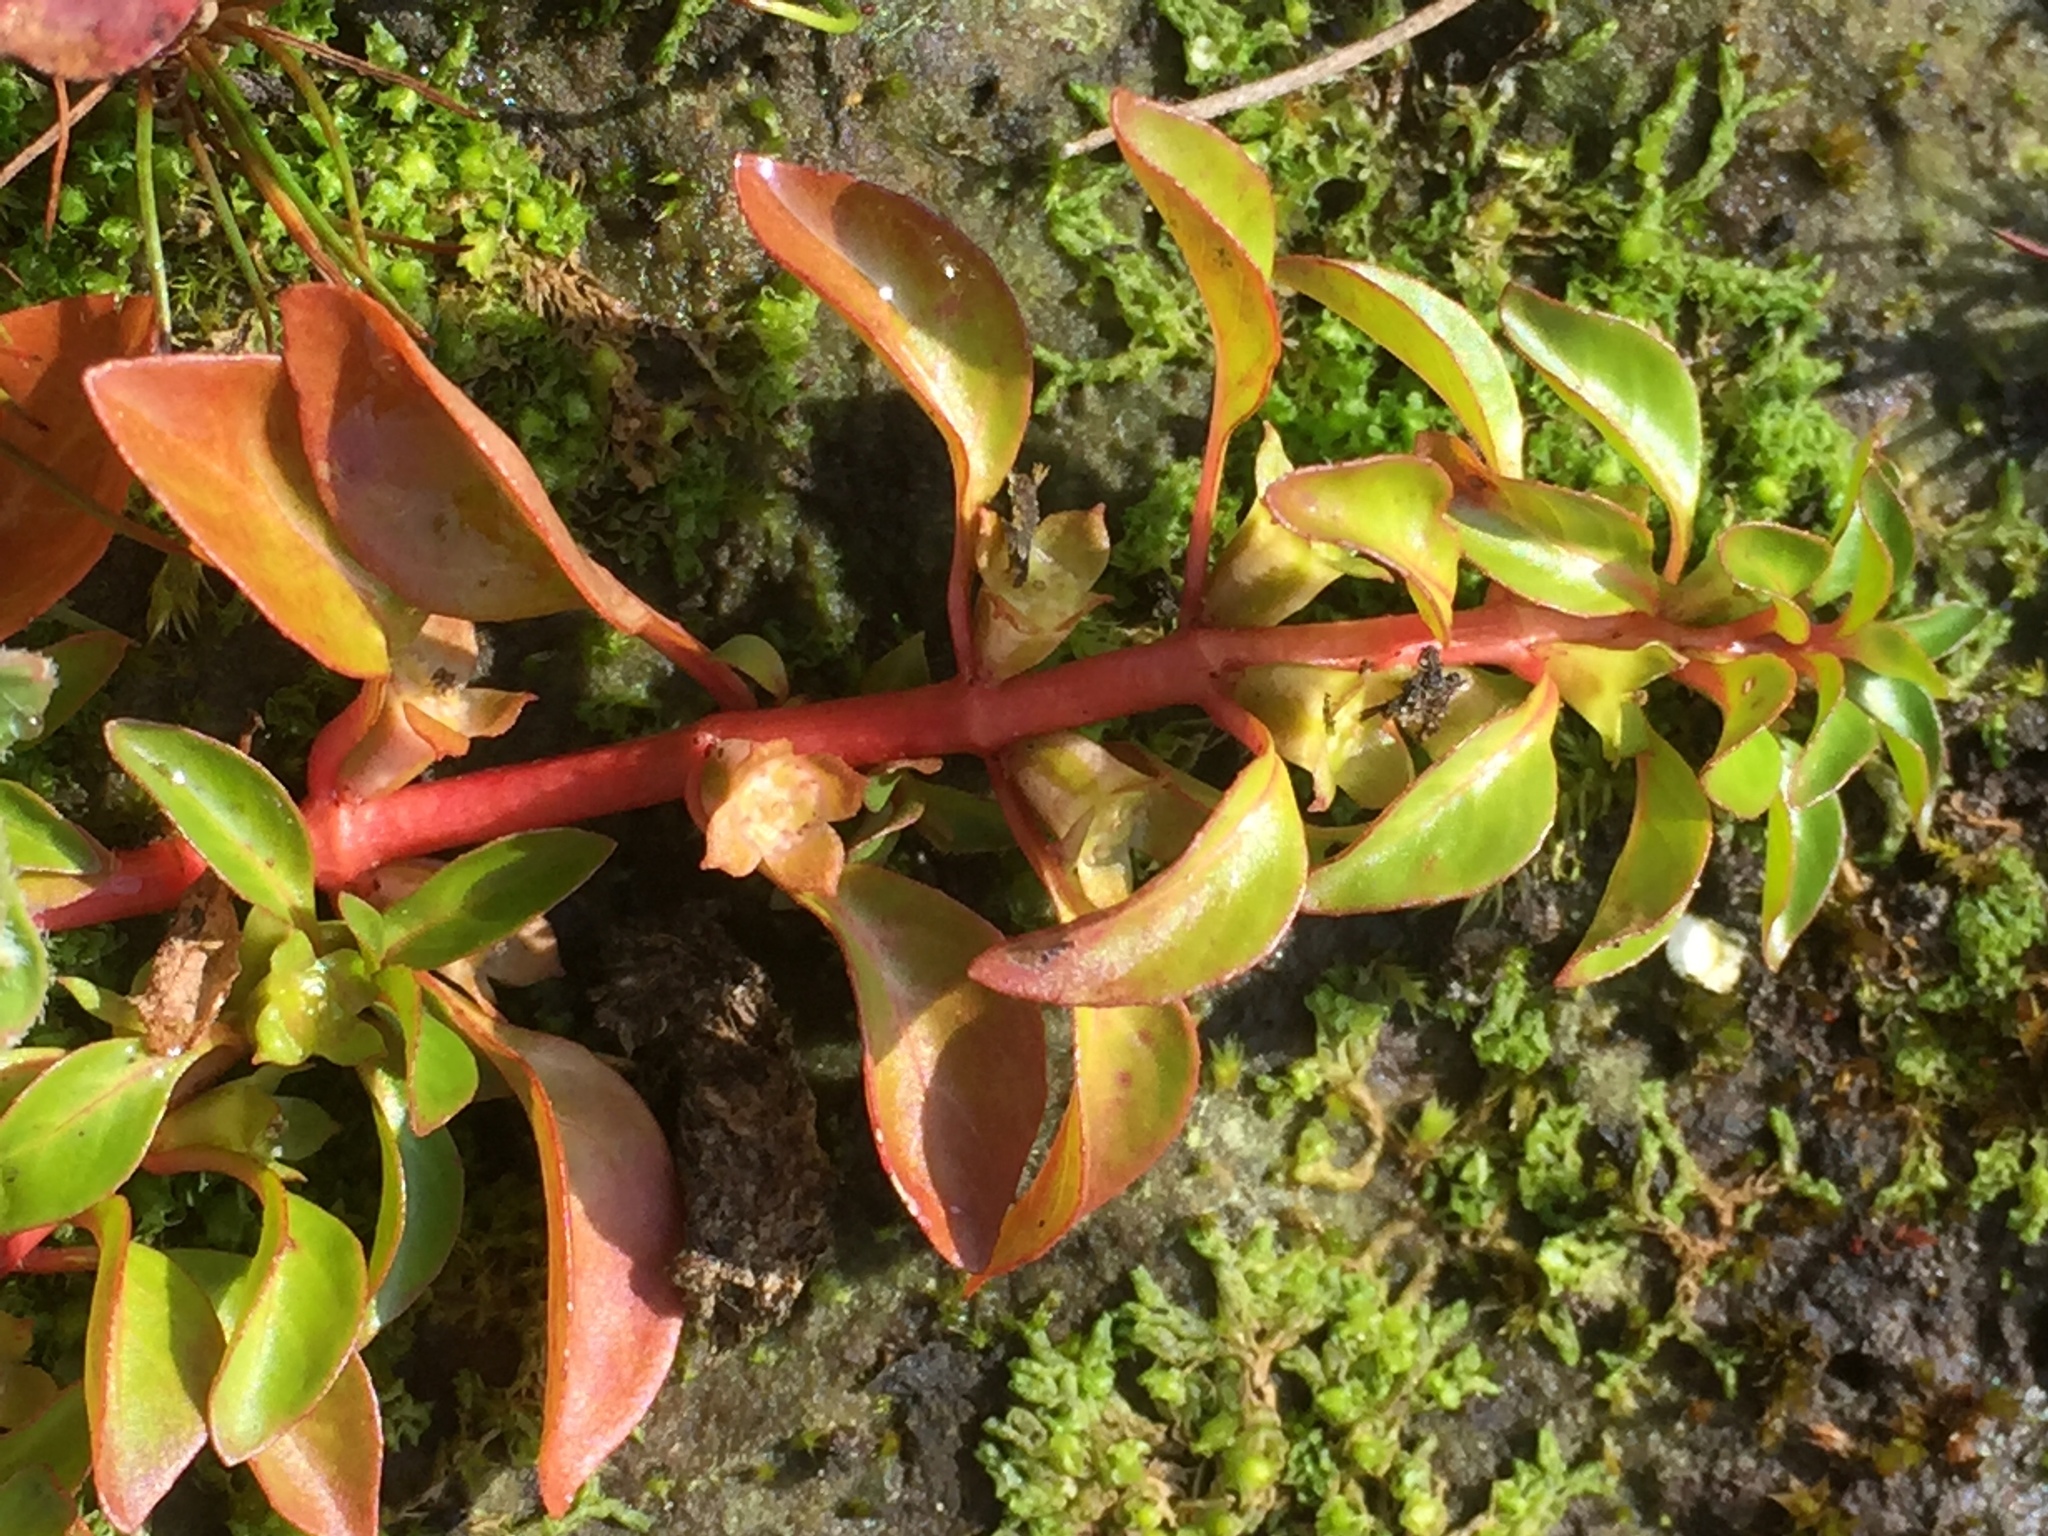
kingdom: Plantae
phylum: Tracheophyta
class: Magnoliopsida
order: Myrtales
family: Onagraceae
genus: Ludwigia
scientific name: Ludwigia palustris
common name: Hampshire-purslane
